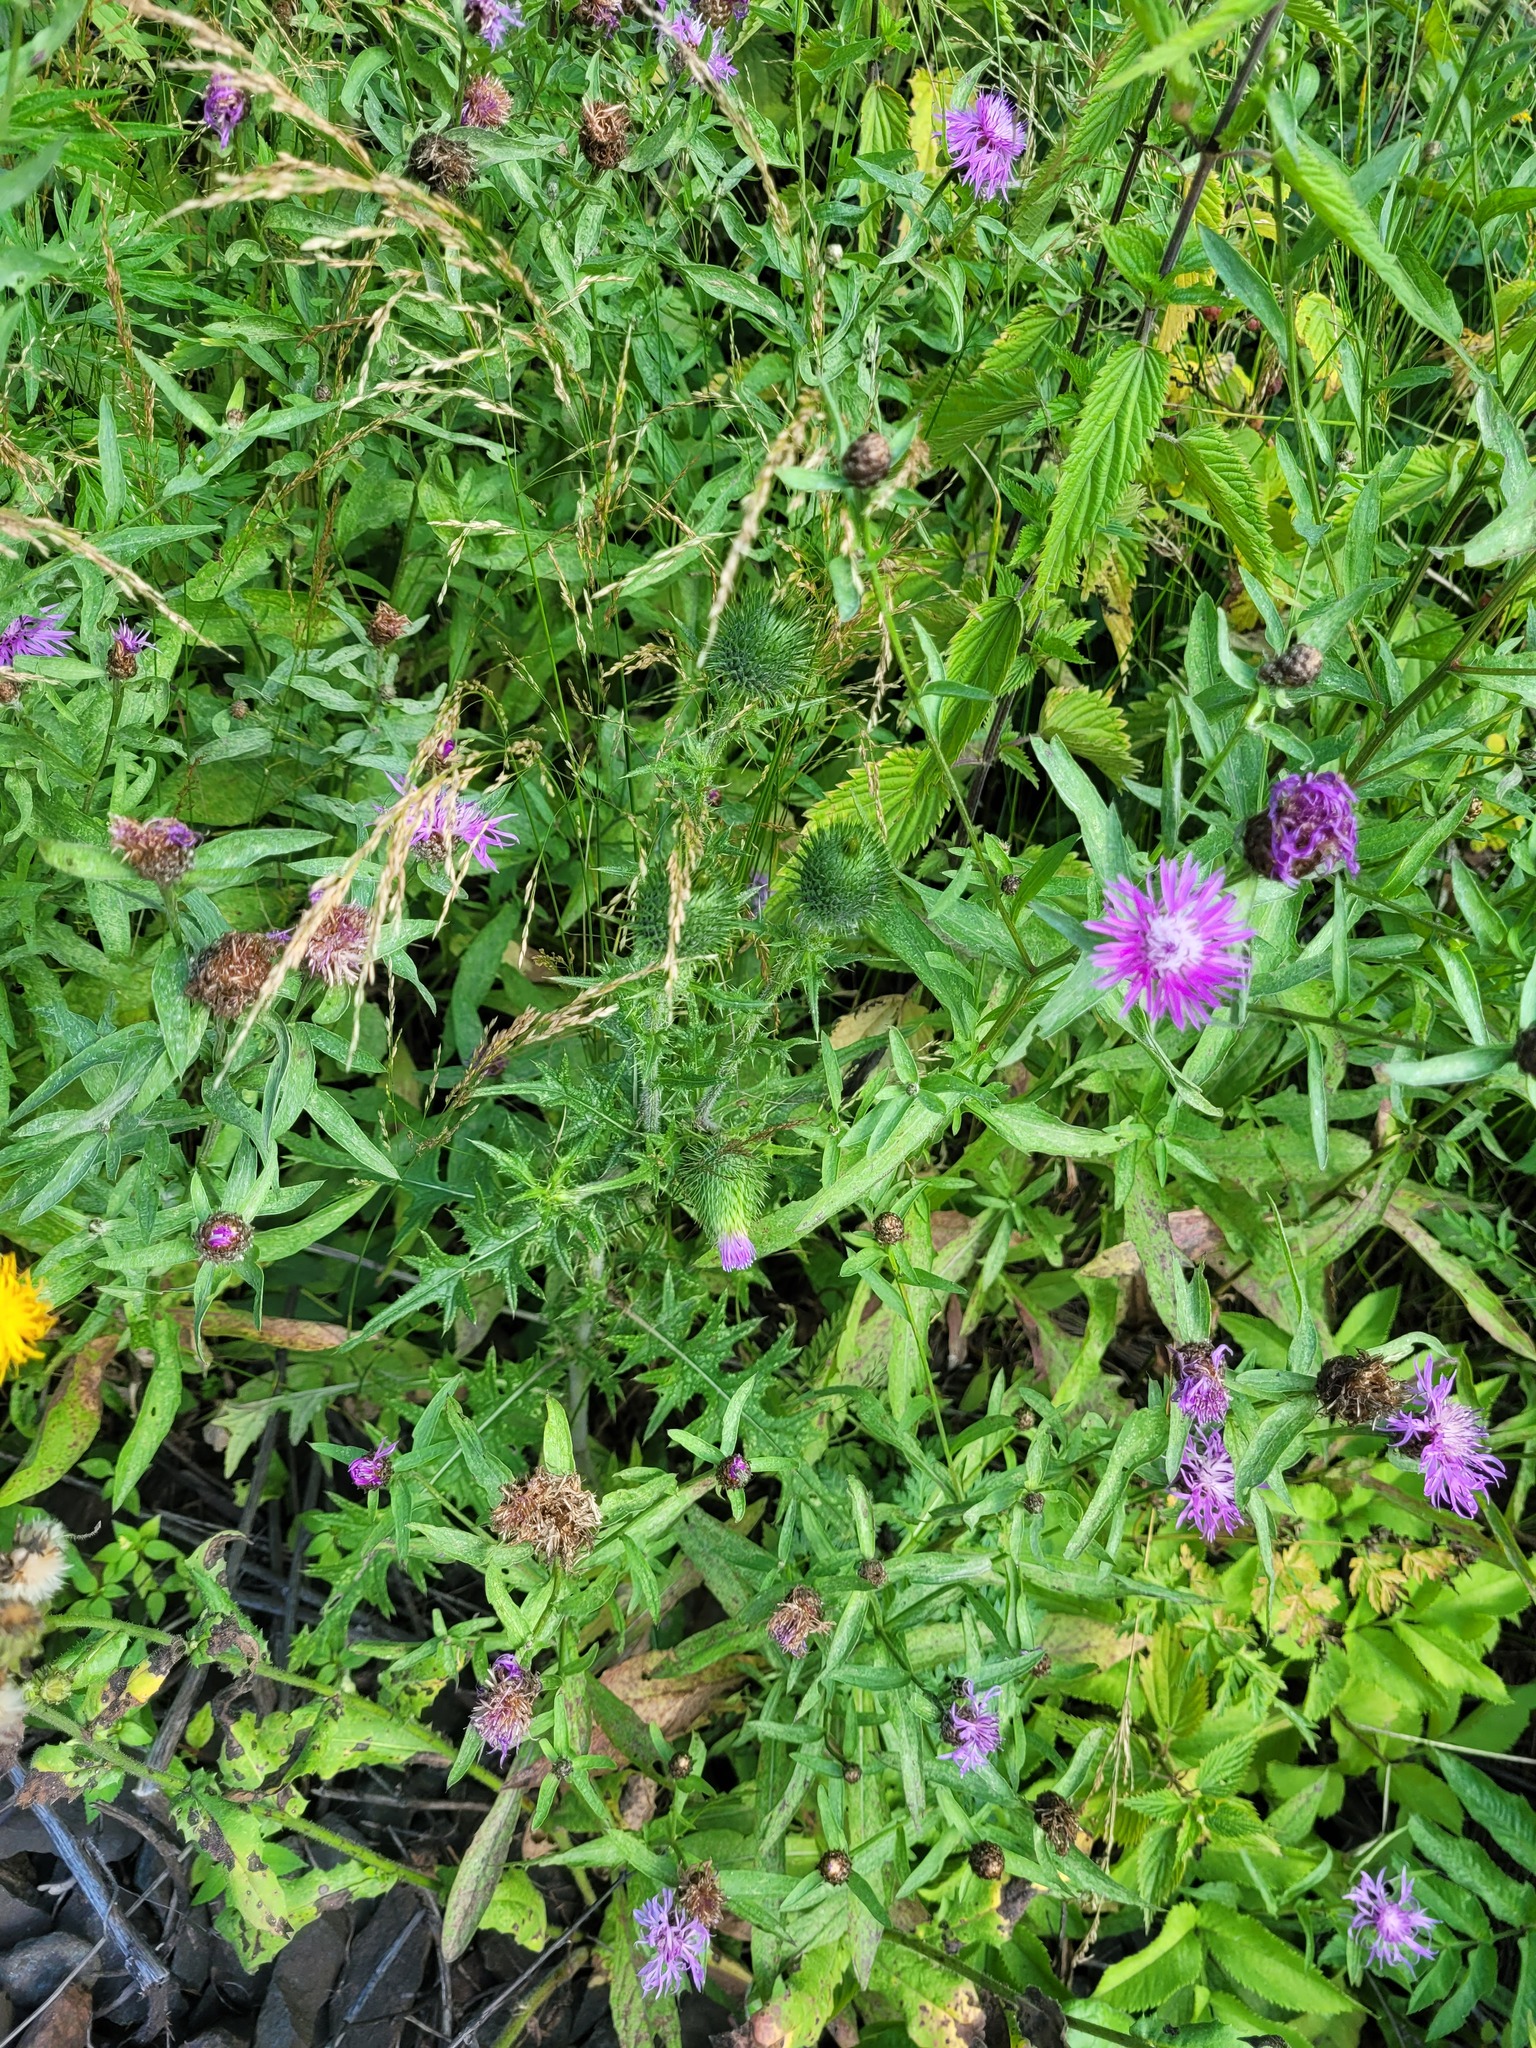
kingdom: Plantae
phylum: Tracheophyta
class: Magnoliopsida
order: Asterales
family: Asteraceae
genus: Cirsium
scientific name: Cirsium vulgare
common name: Bull thistle
